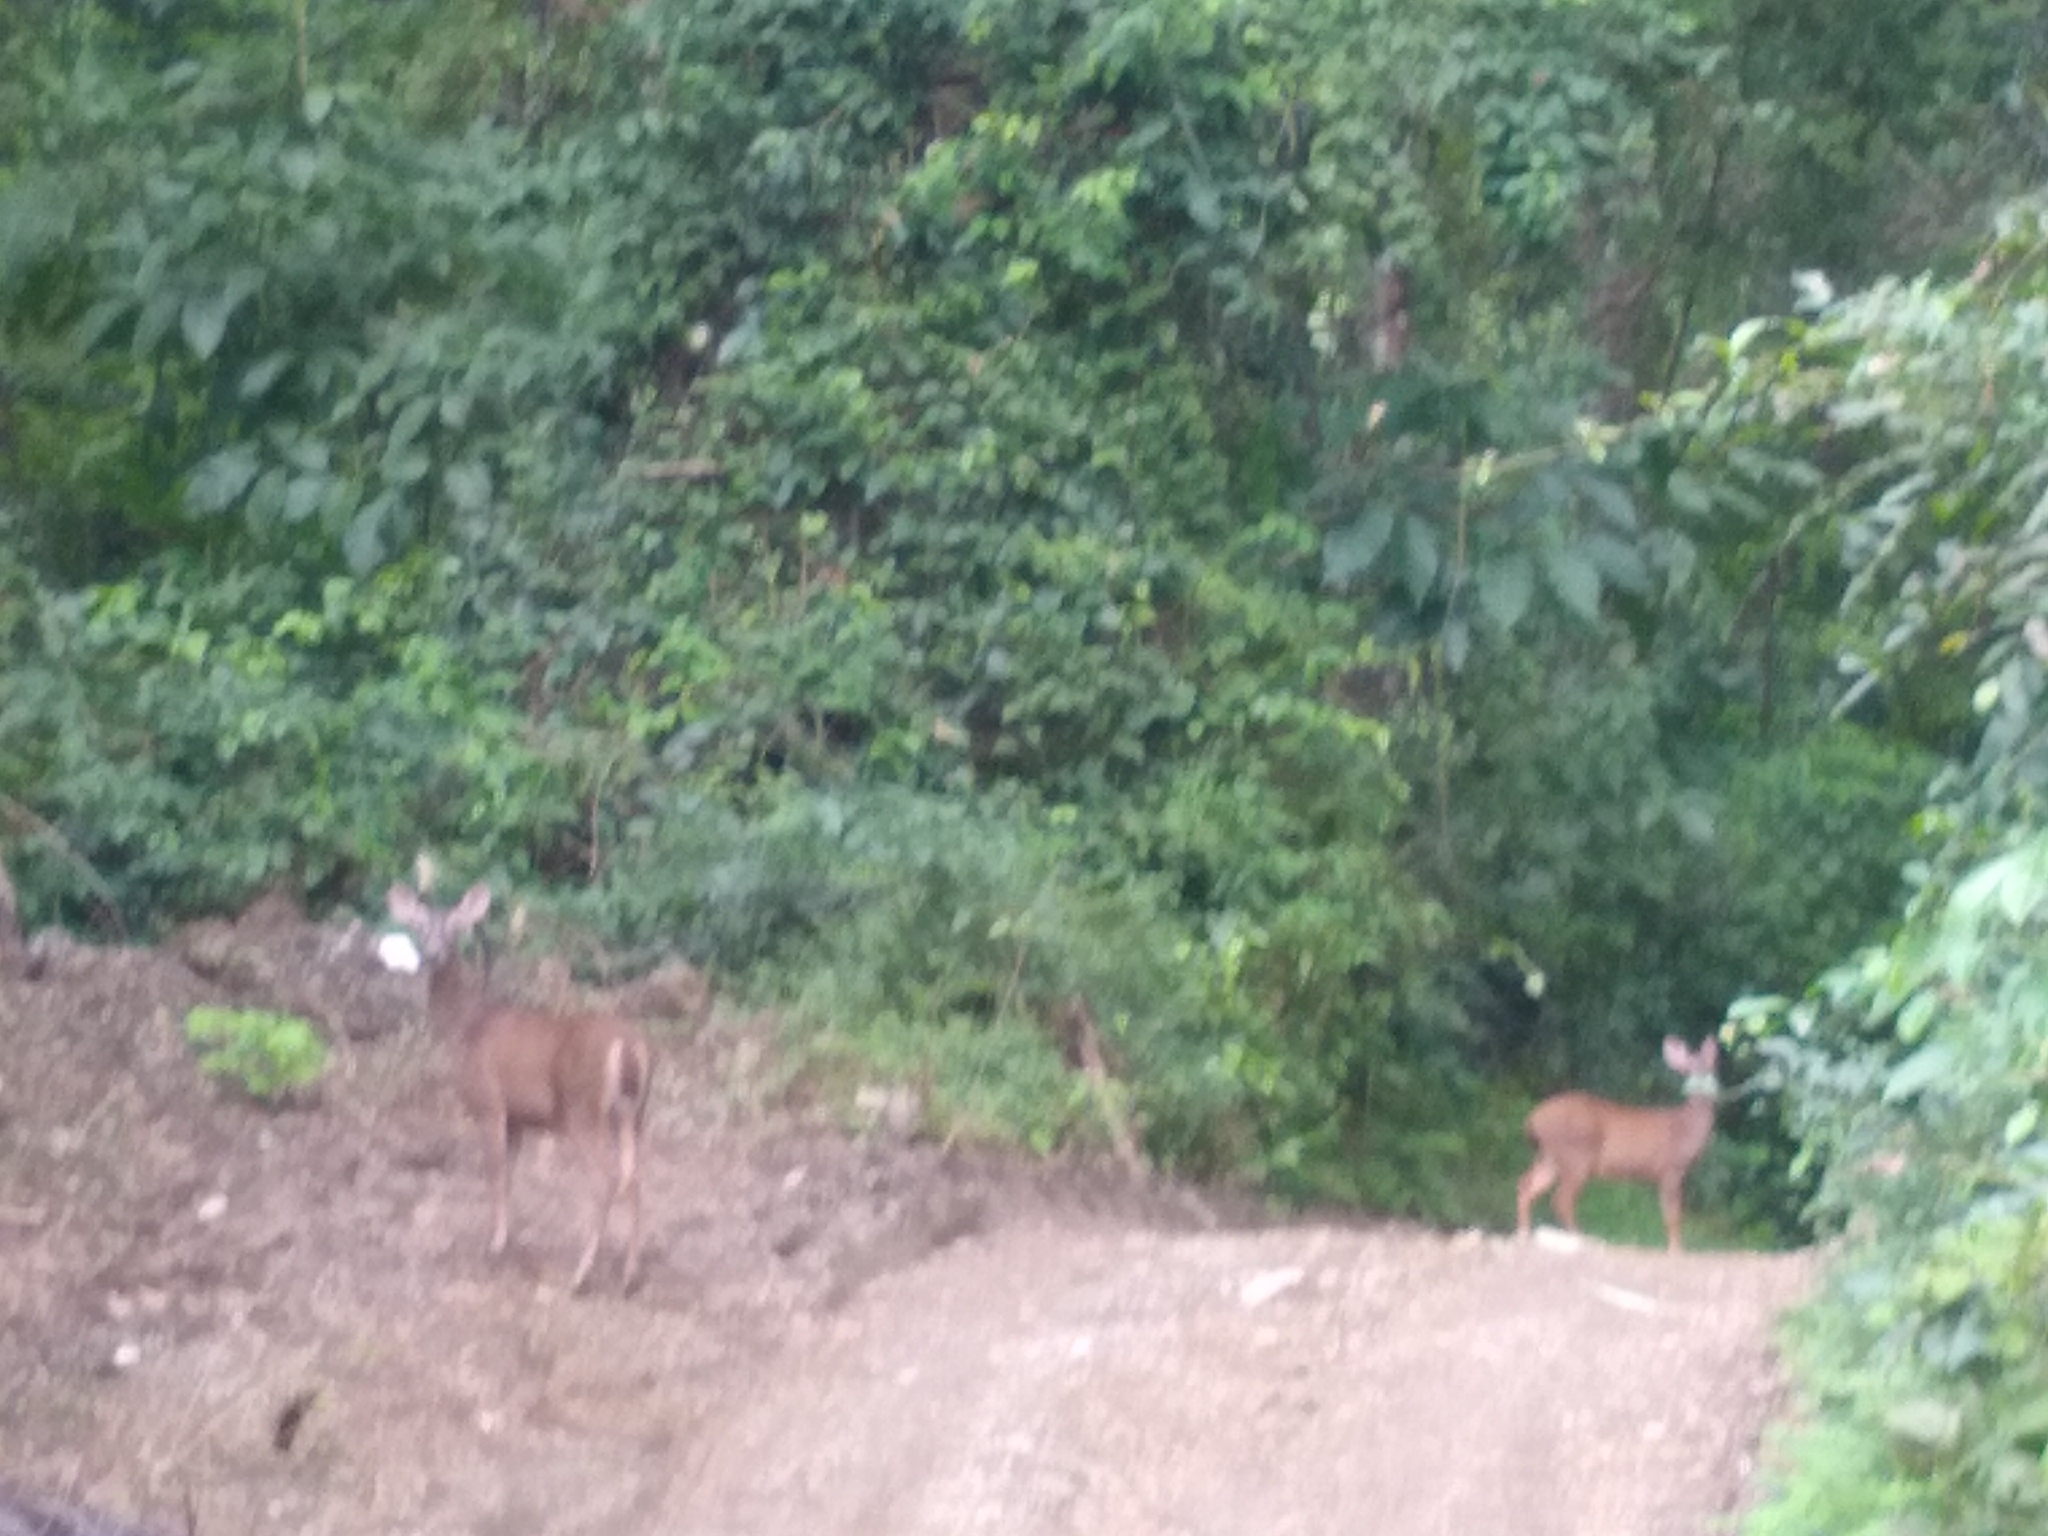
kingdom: Animalia
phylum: Chordata
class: Mammalia
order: Artiodactyla
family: Cervidae
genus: Odocoileus
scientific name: Odocoileus virginianus
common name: White-tailed deer
